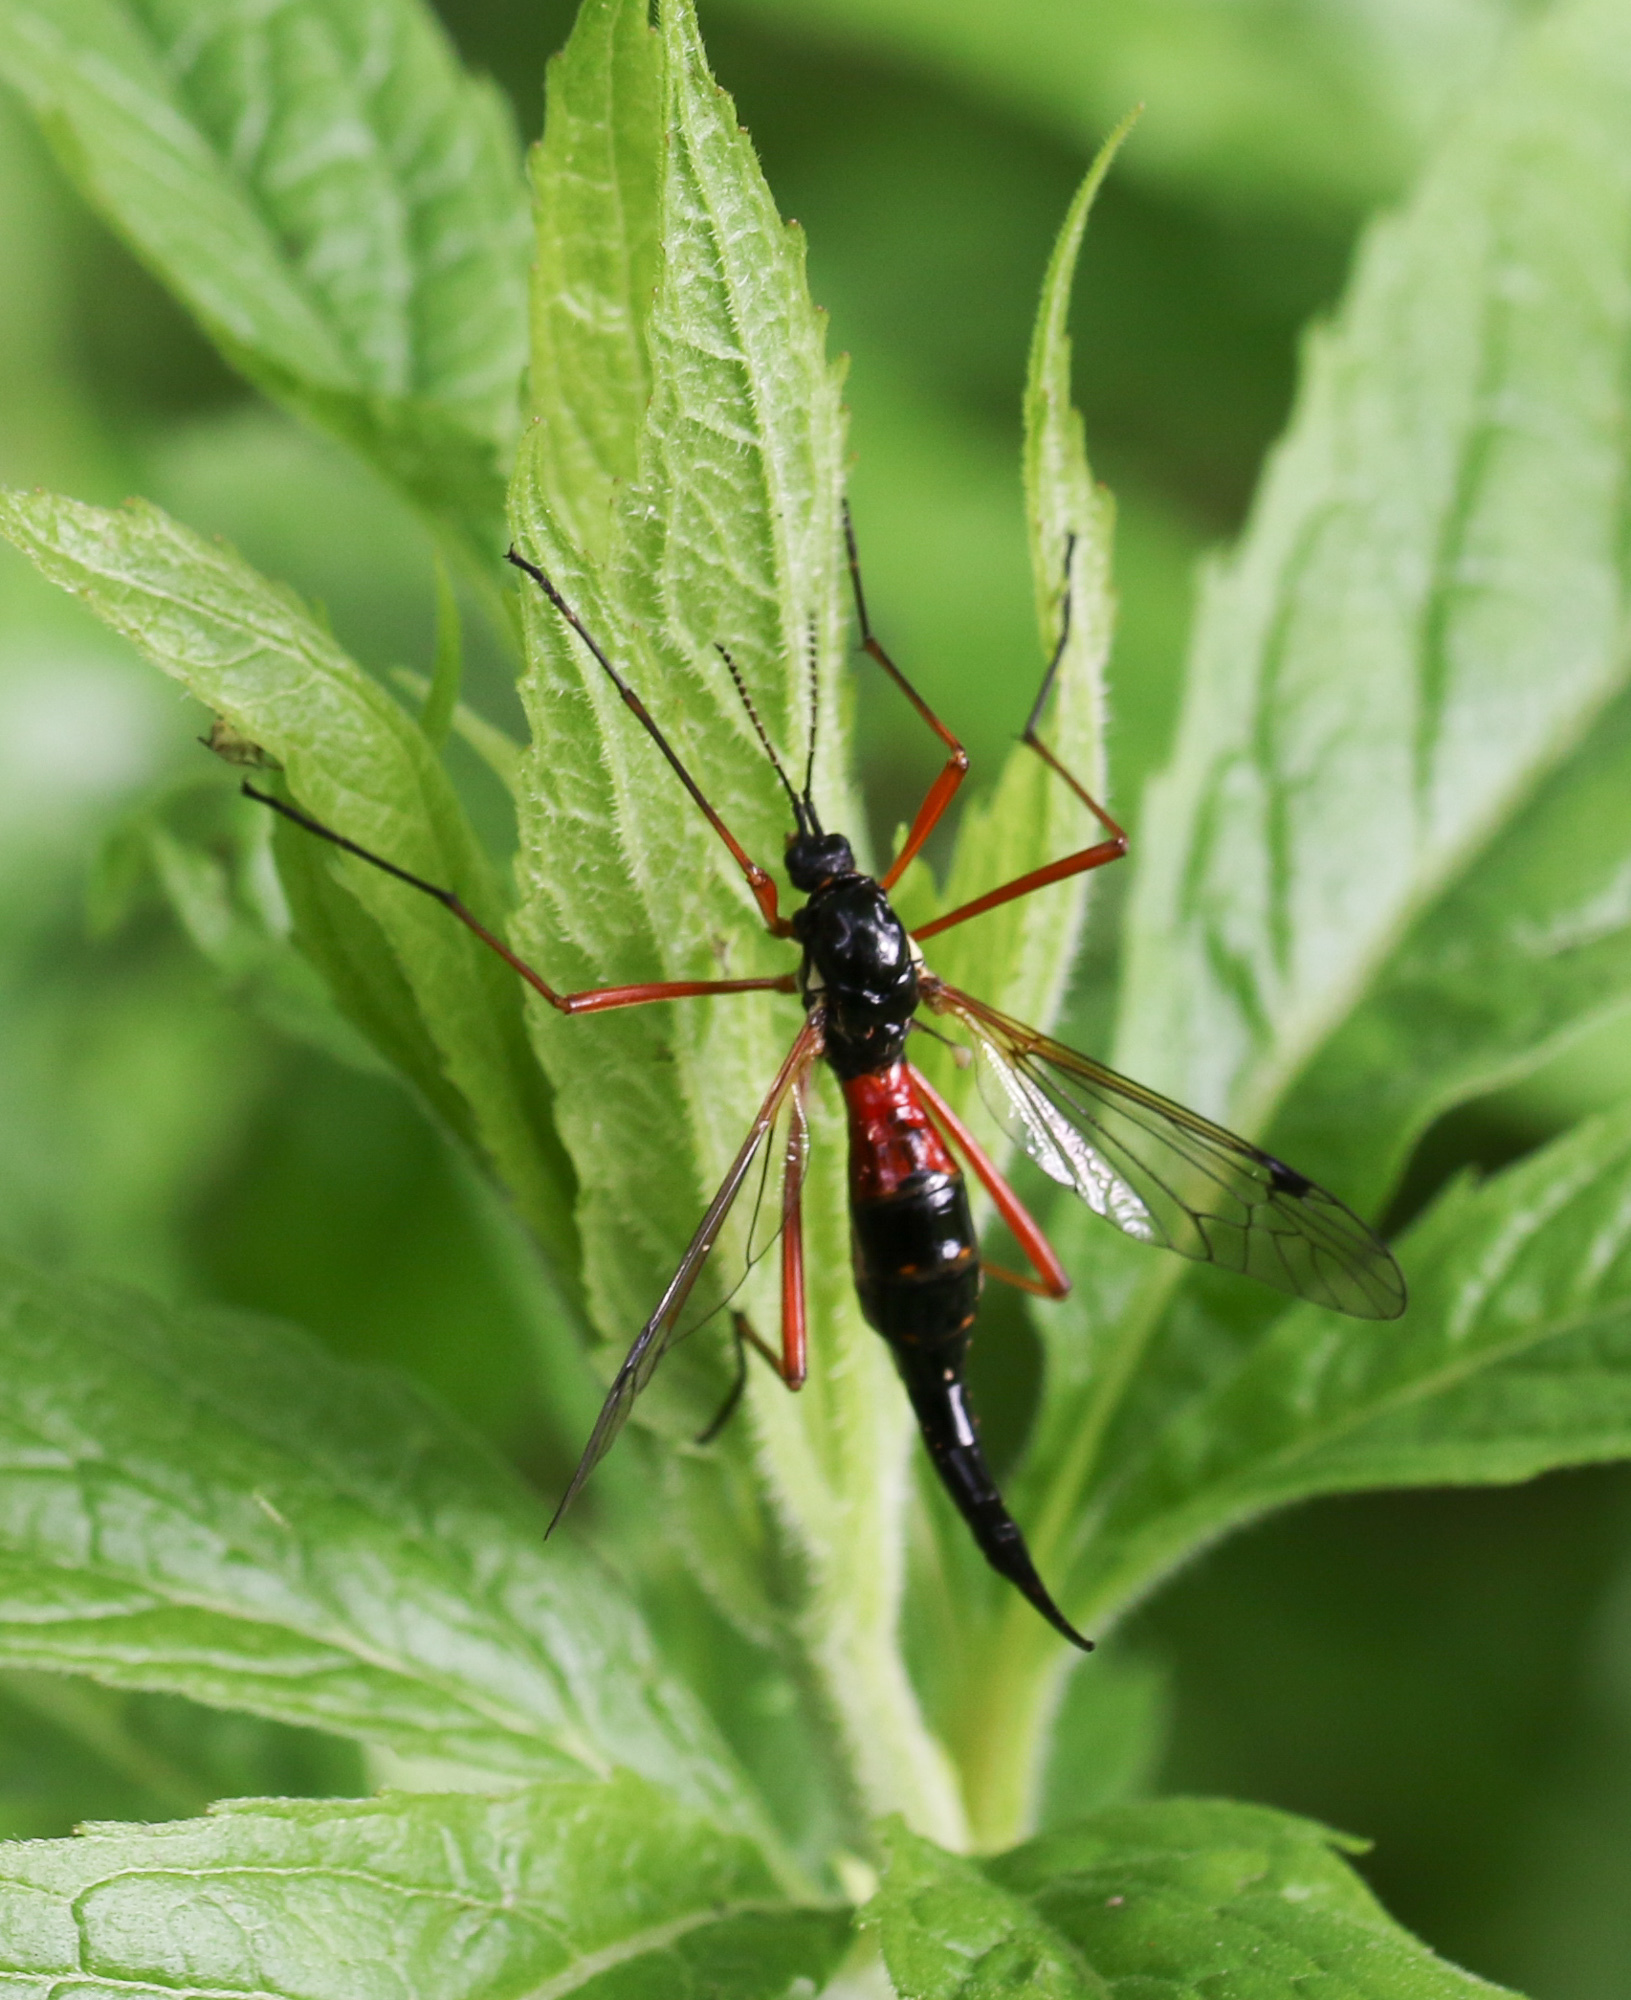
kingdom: Animalia
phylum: Arthropoda
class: Insecta
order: Diptera
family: Tipulidae
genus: Tanyptera
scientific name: Tanyptera atrata
